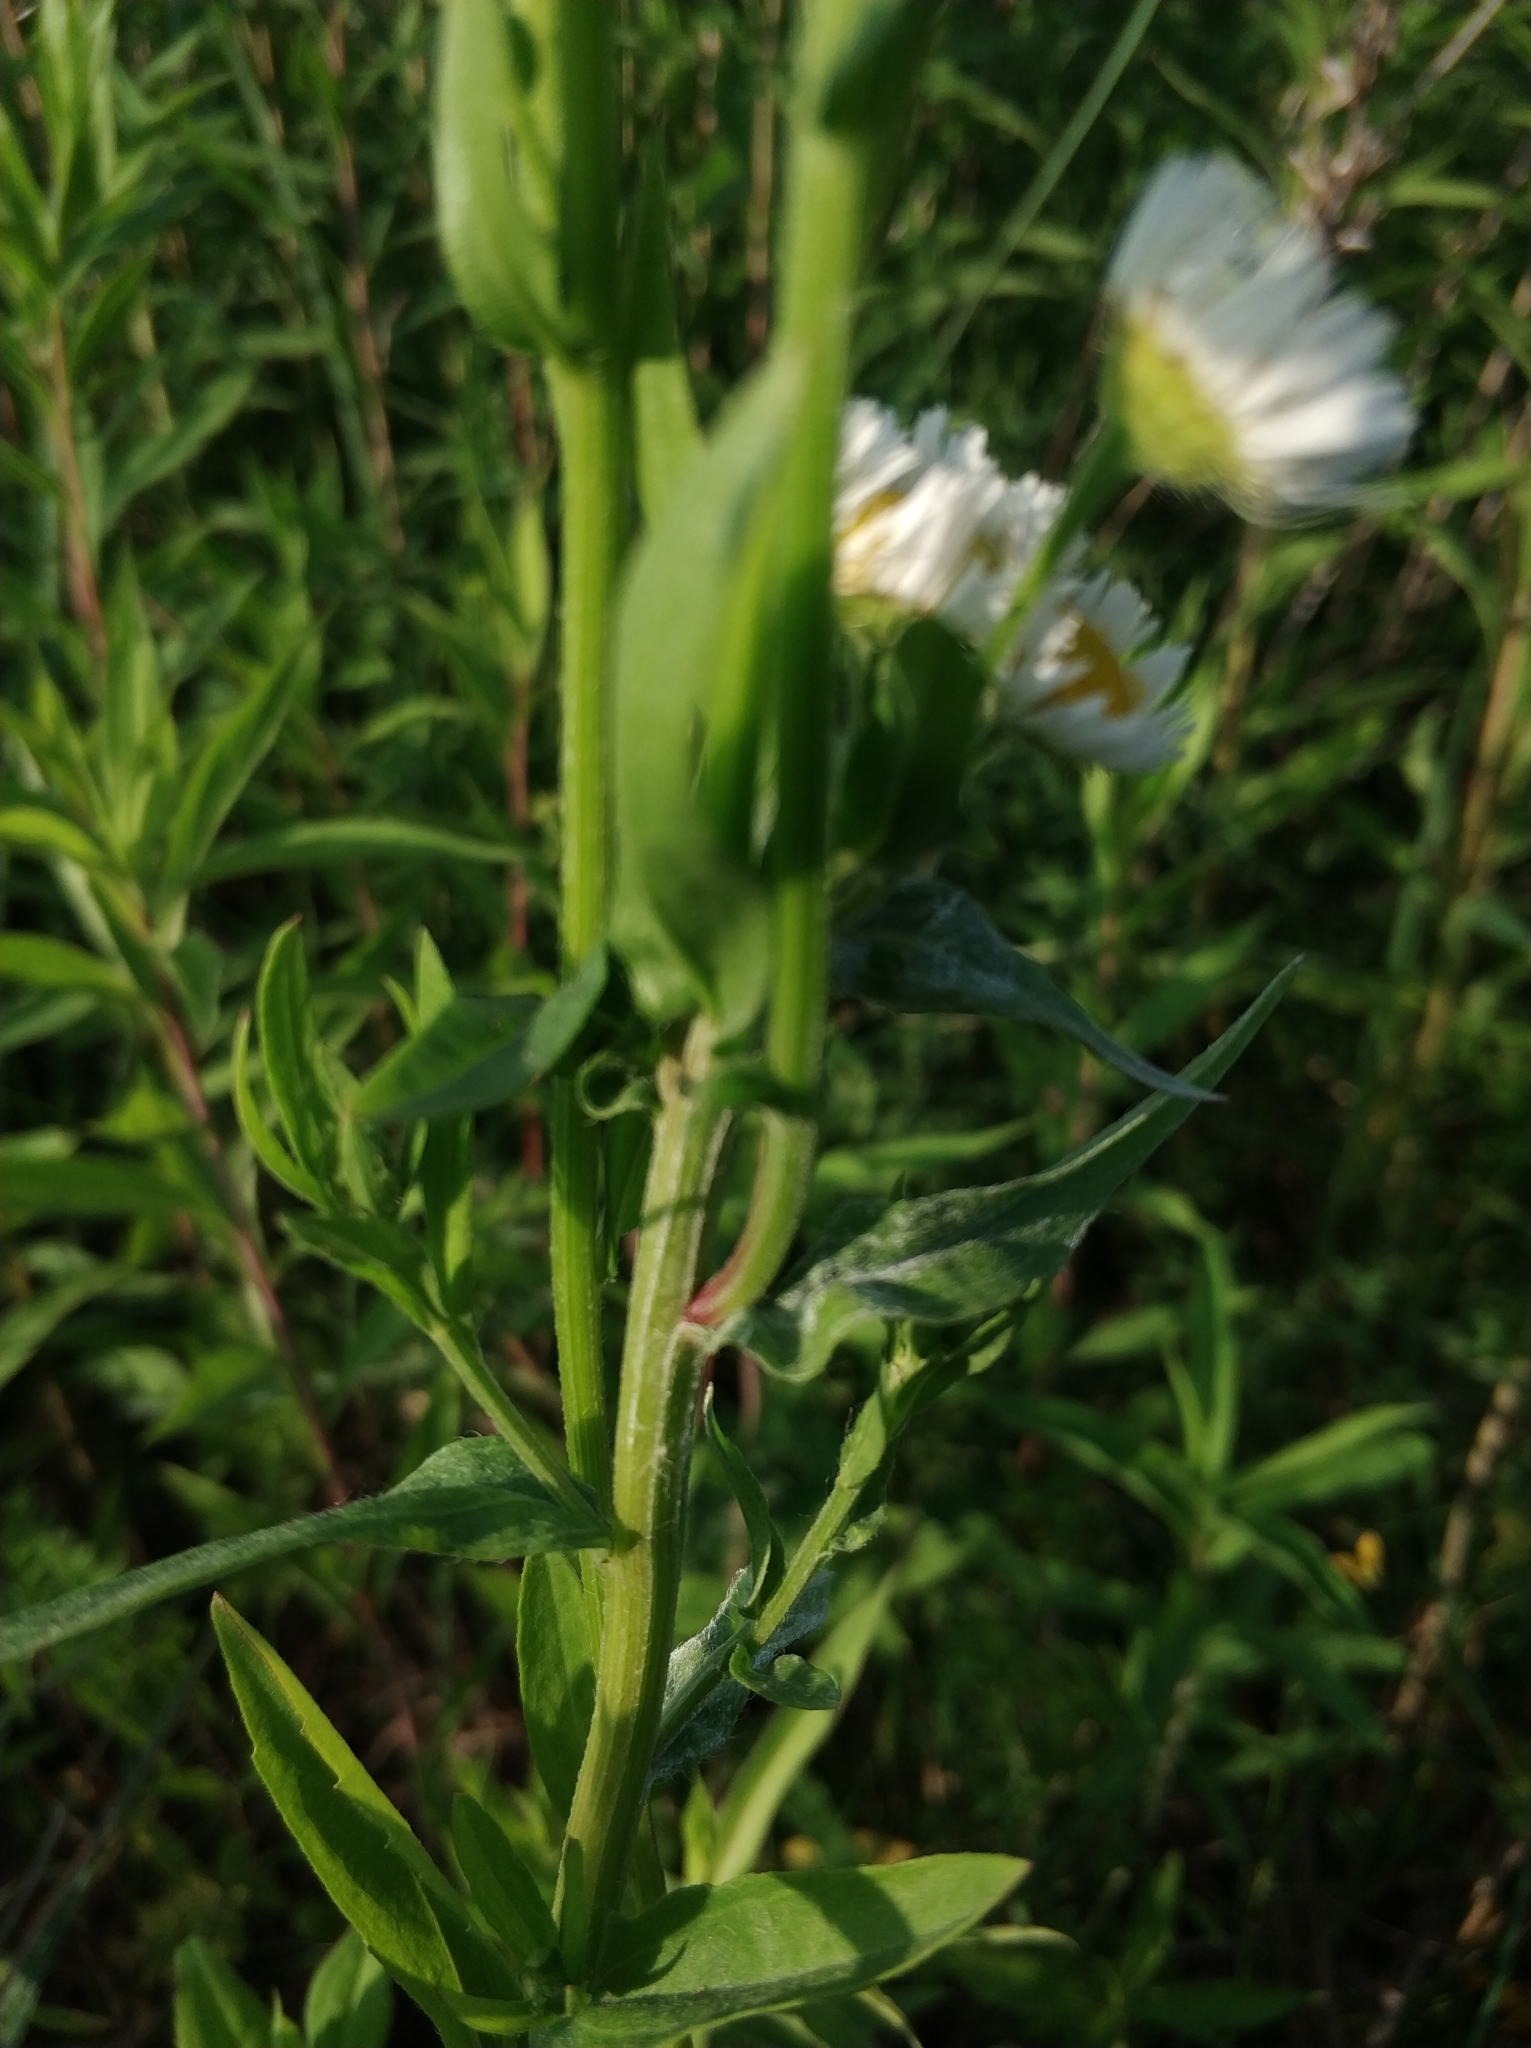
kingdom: Plantae
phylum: Tracheophyta
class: Magnoliopsida
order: Asterales
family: Asteraceae
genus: Erigeron
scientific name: Erigeron annuus
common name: Tall fleabane
